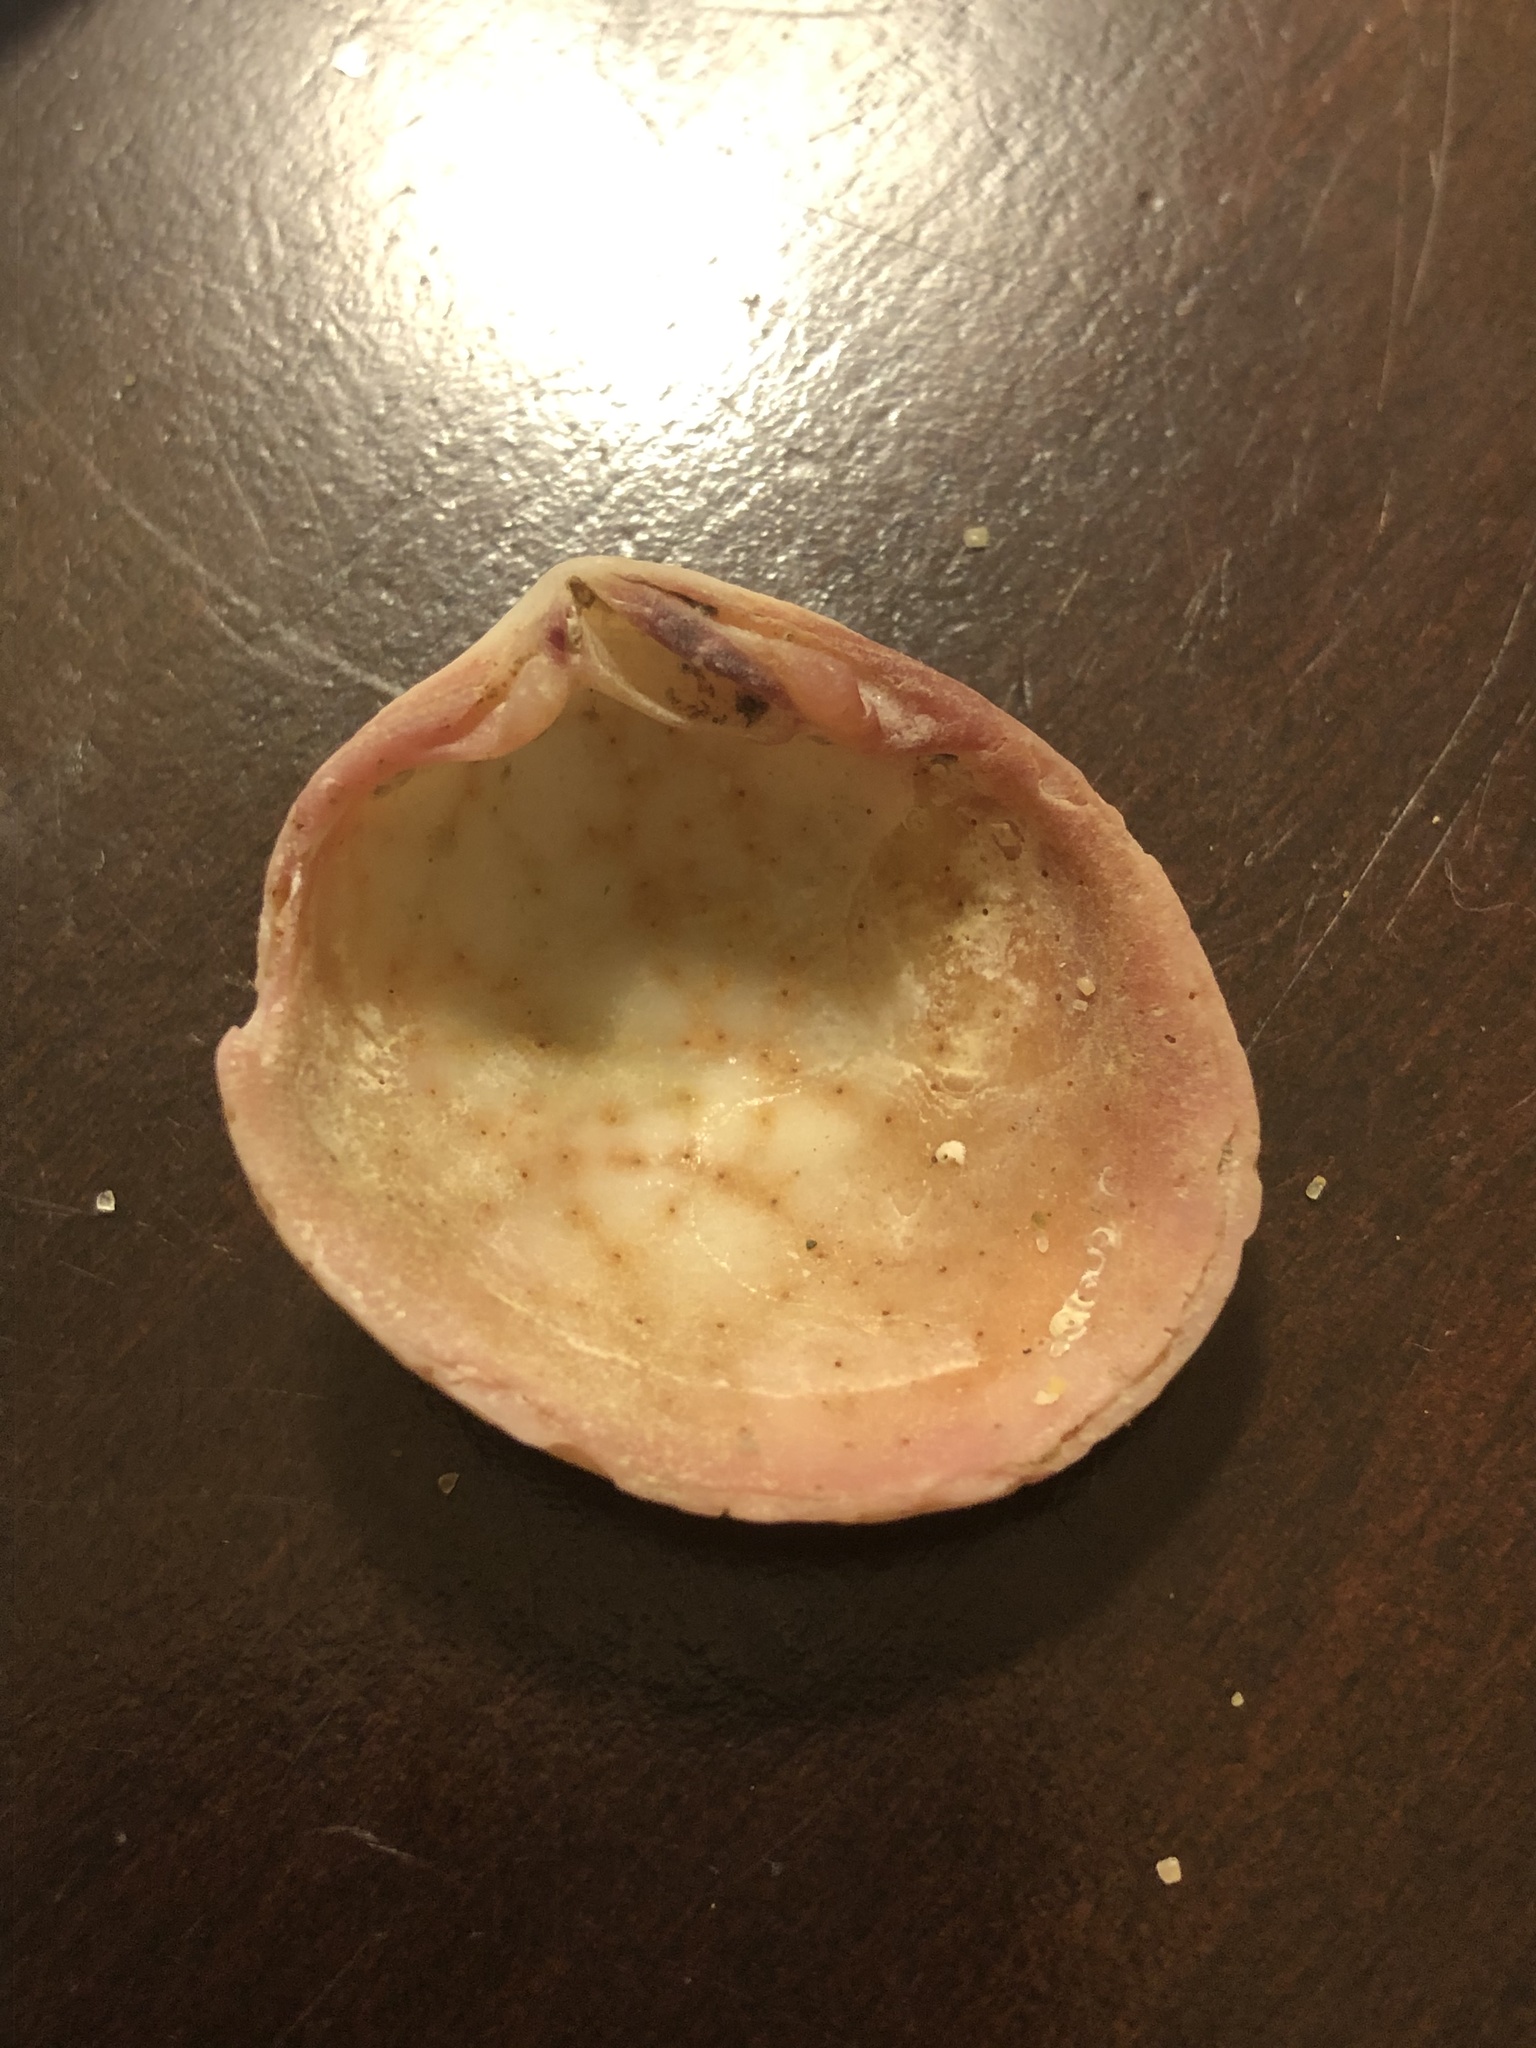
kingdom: Animalia
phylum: Mollusca
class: Bivalvia
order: Cardiida
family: Semelidae
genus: Semele
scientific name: Semele rupicola
